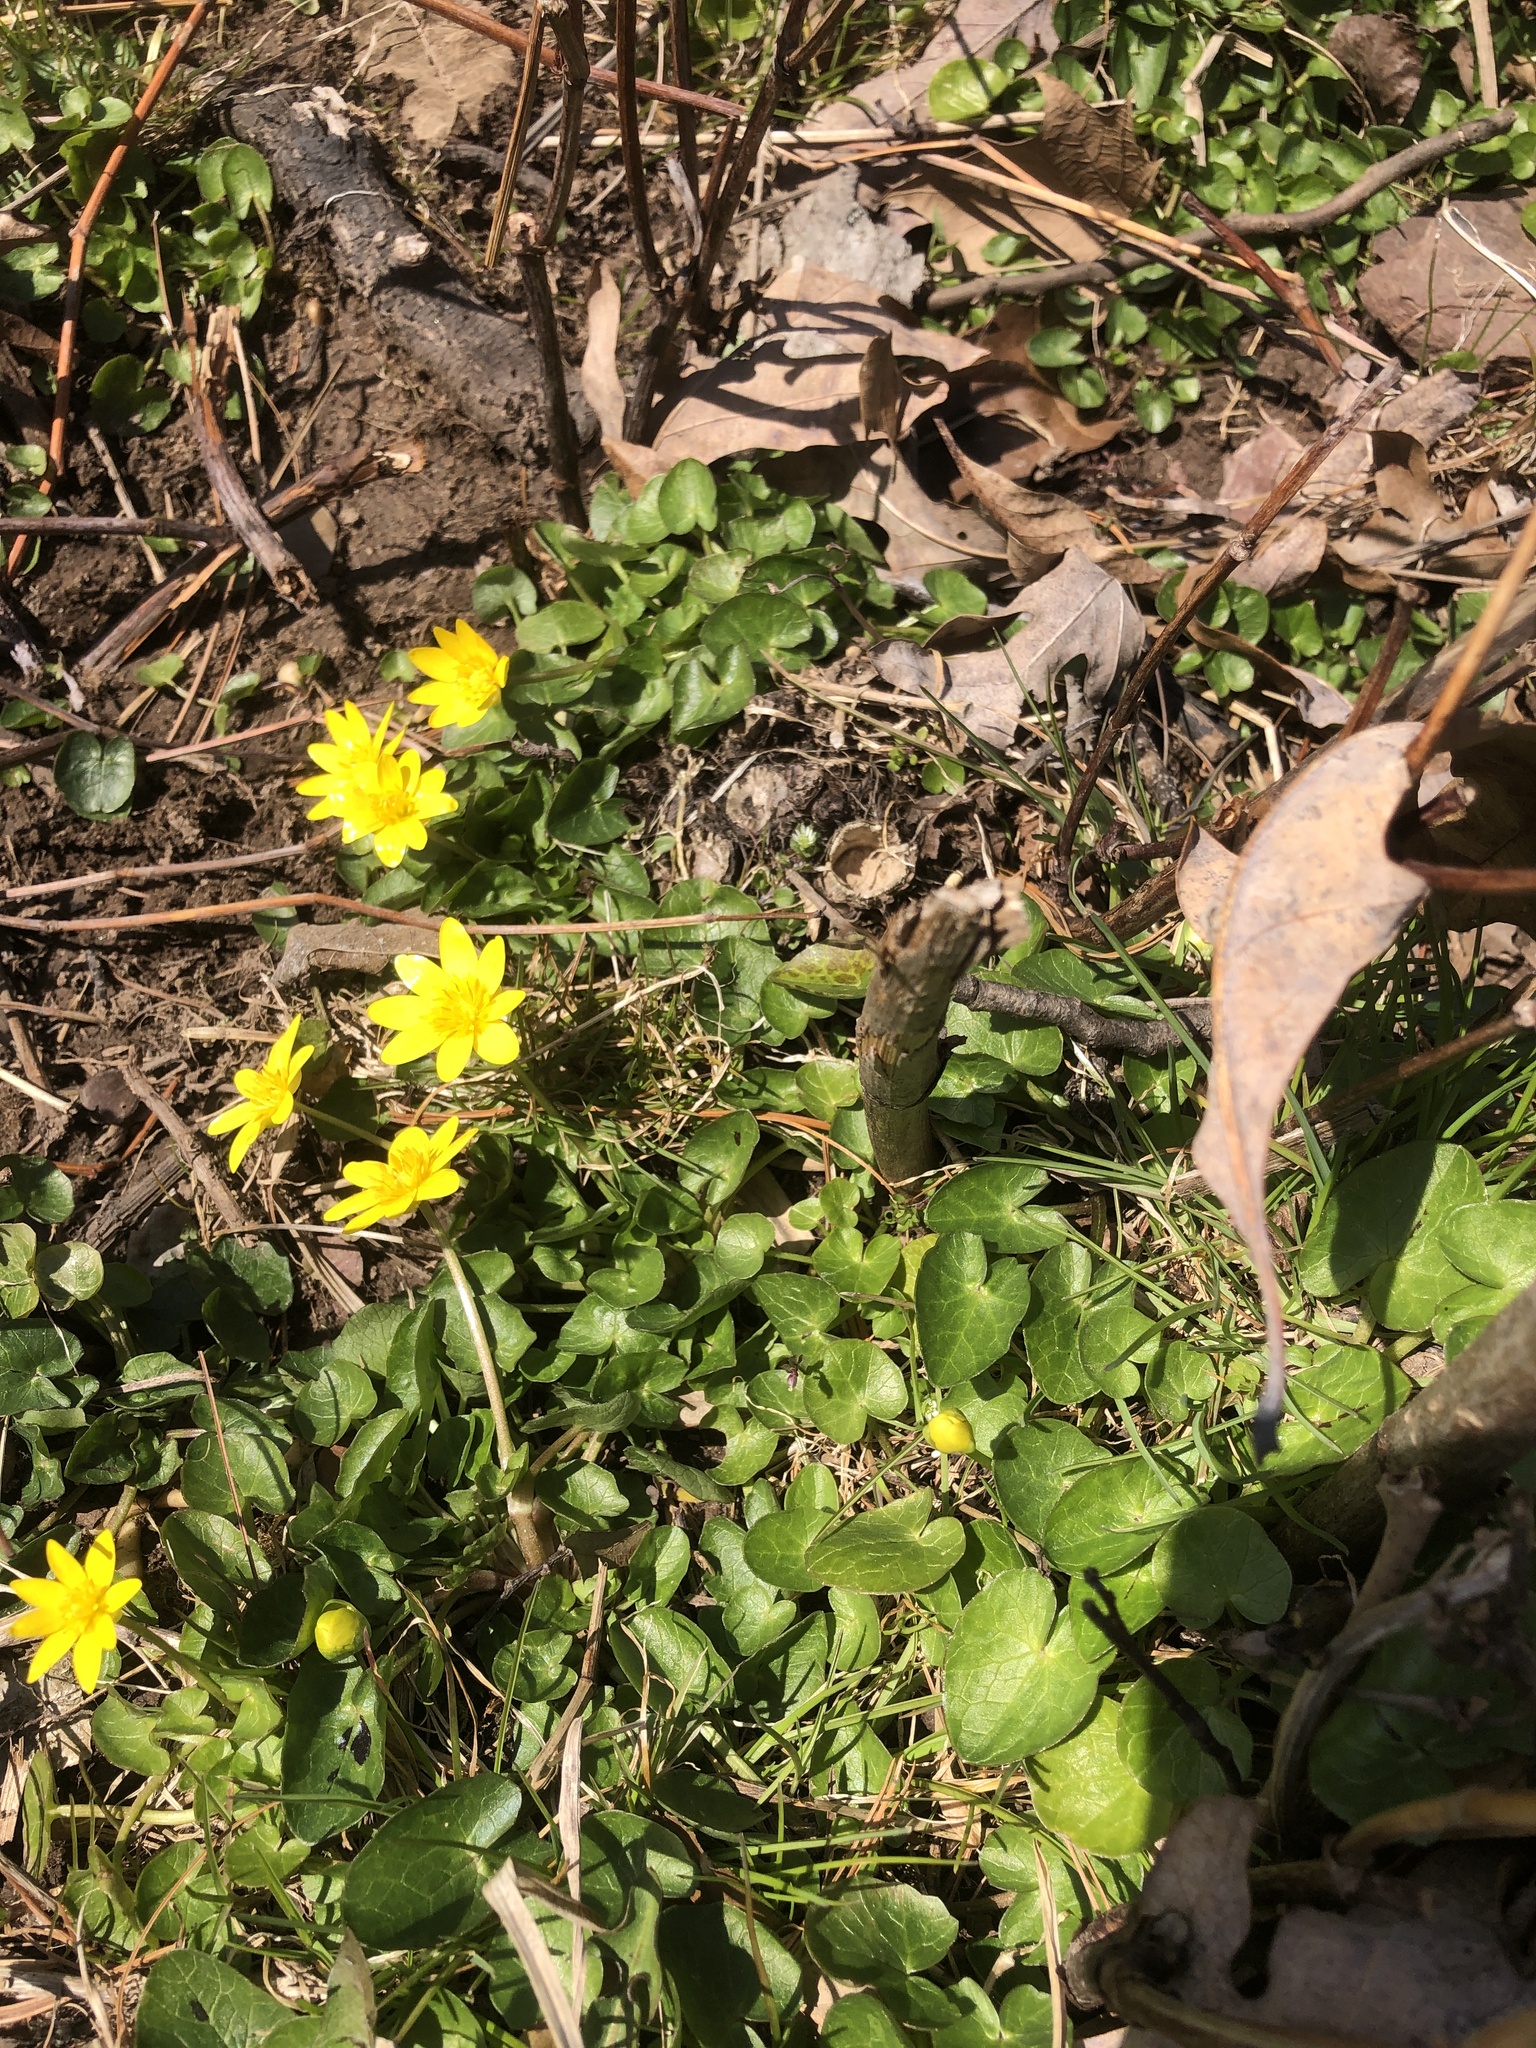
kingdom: Plantae
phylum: Tracheophyta
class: Magnoliopsida
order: Ranunculales
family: Ranunculaceae
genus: Ficaria
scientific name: Ficaria verna
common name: Lesser celandine
